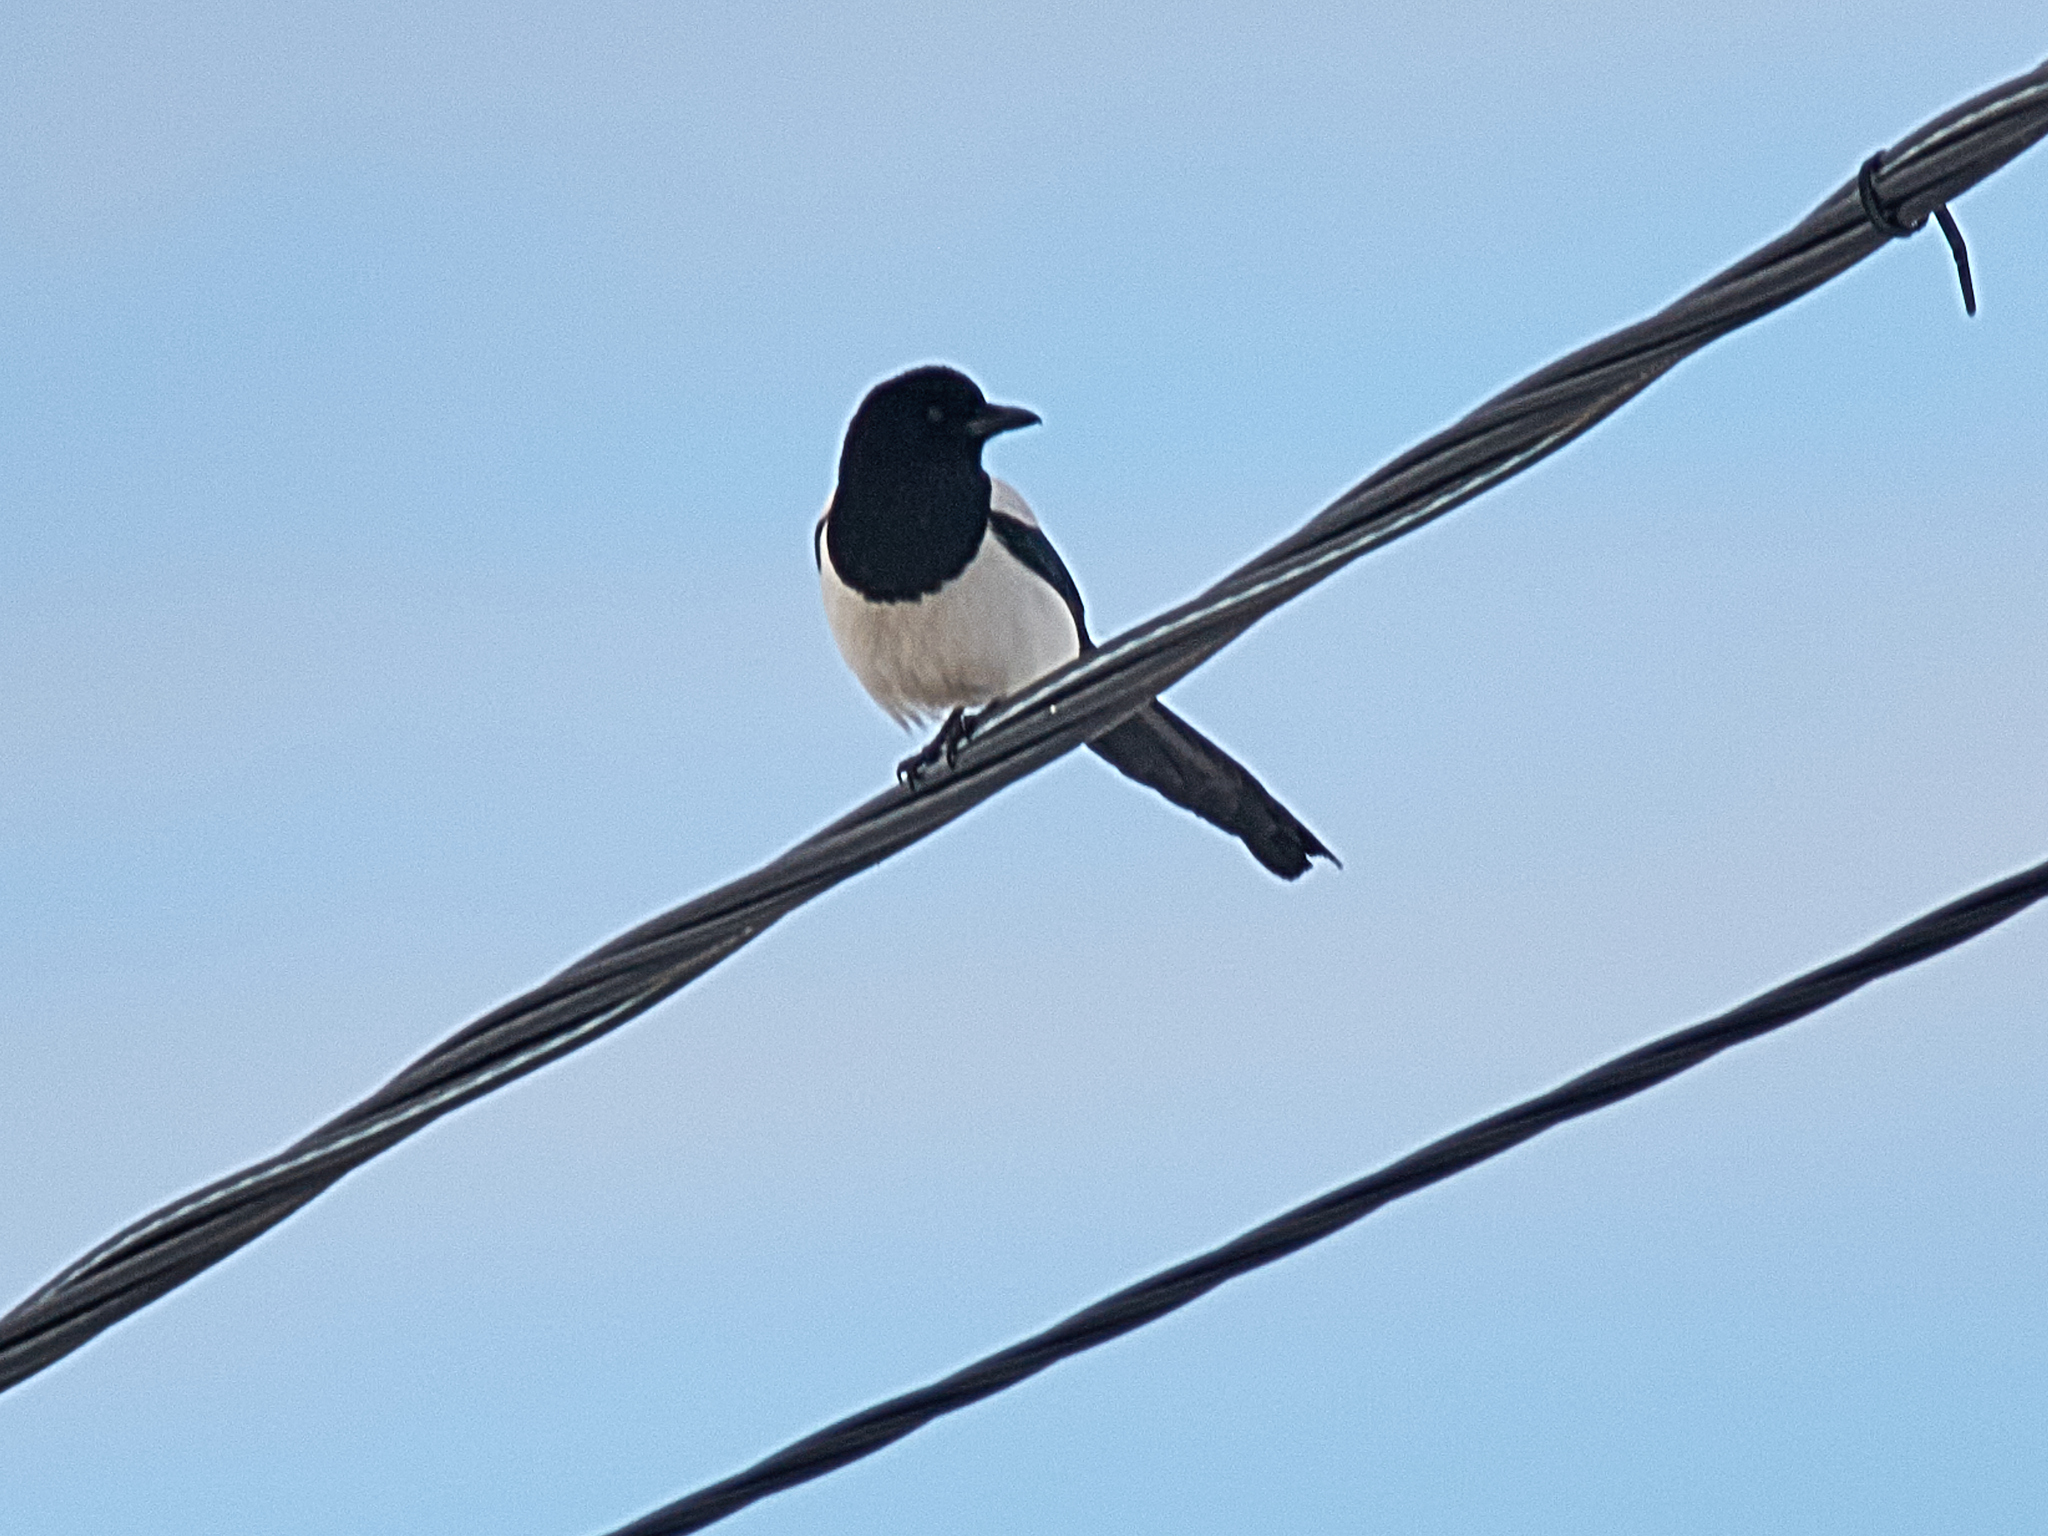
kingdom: Animalia
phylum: Chordata
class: Aves
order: Passeriformes
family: Corvidae
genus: Pica
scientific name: Pica pica
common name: Eurasian magpie
